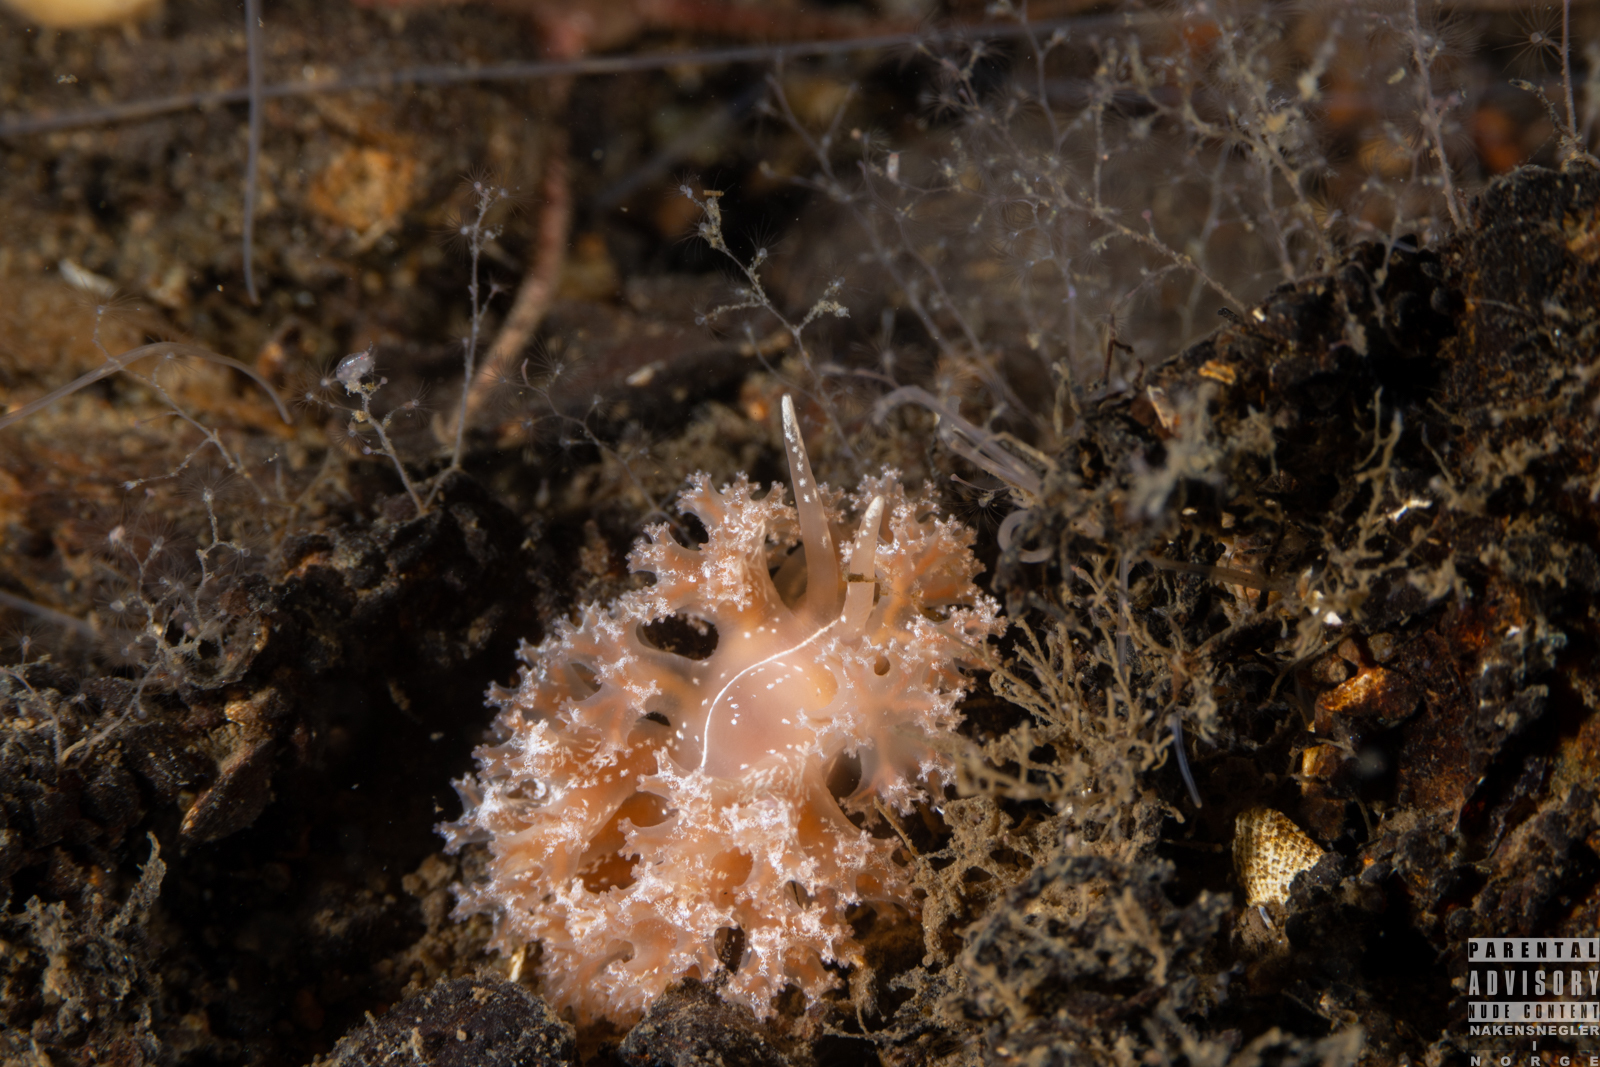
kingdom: Animalia
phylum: Mollusca
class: Gastropoda
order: Nudibranchia
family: Heroidae
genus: Hero
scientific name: Hero formosa
